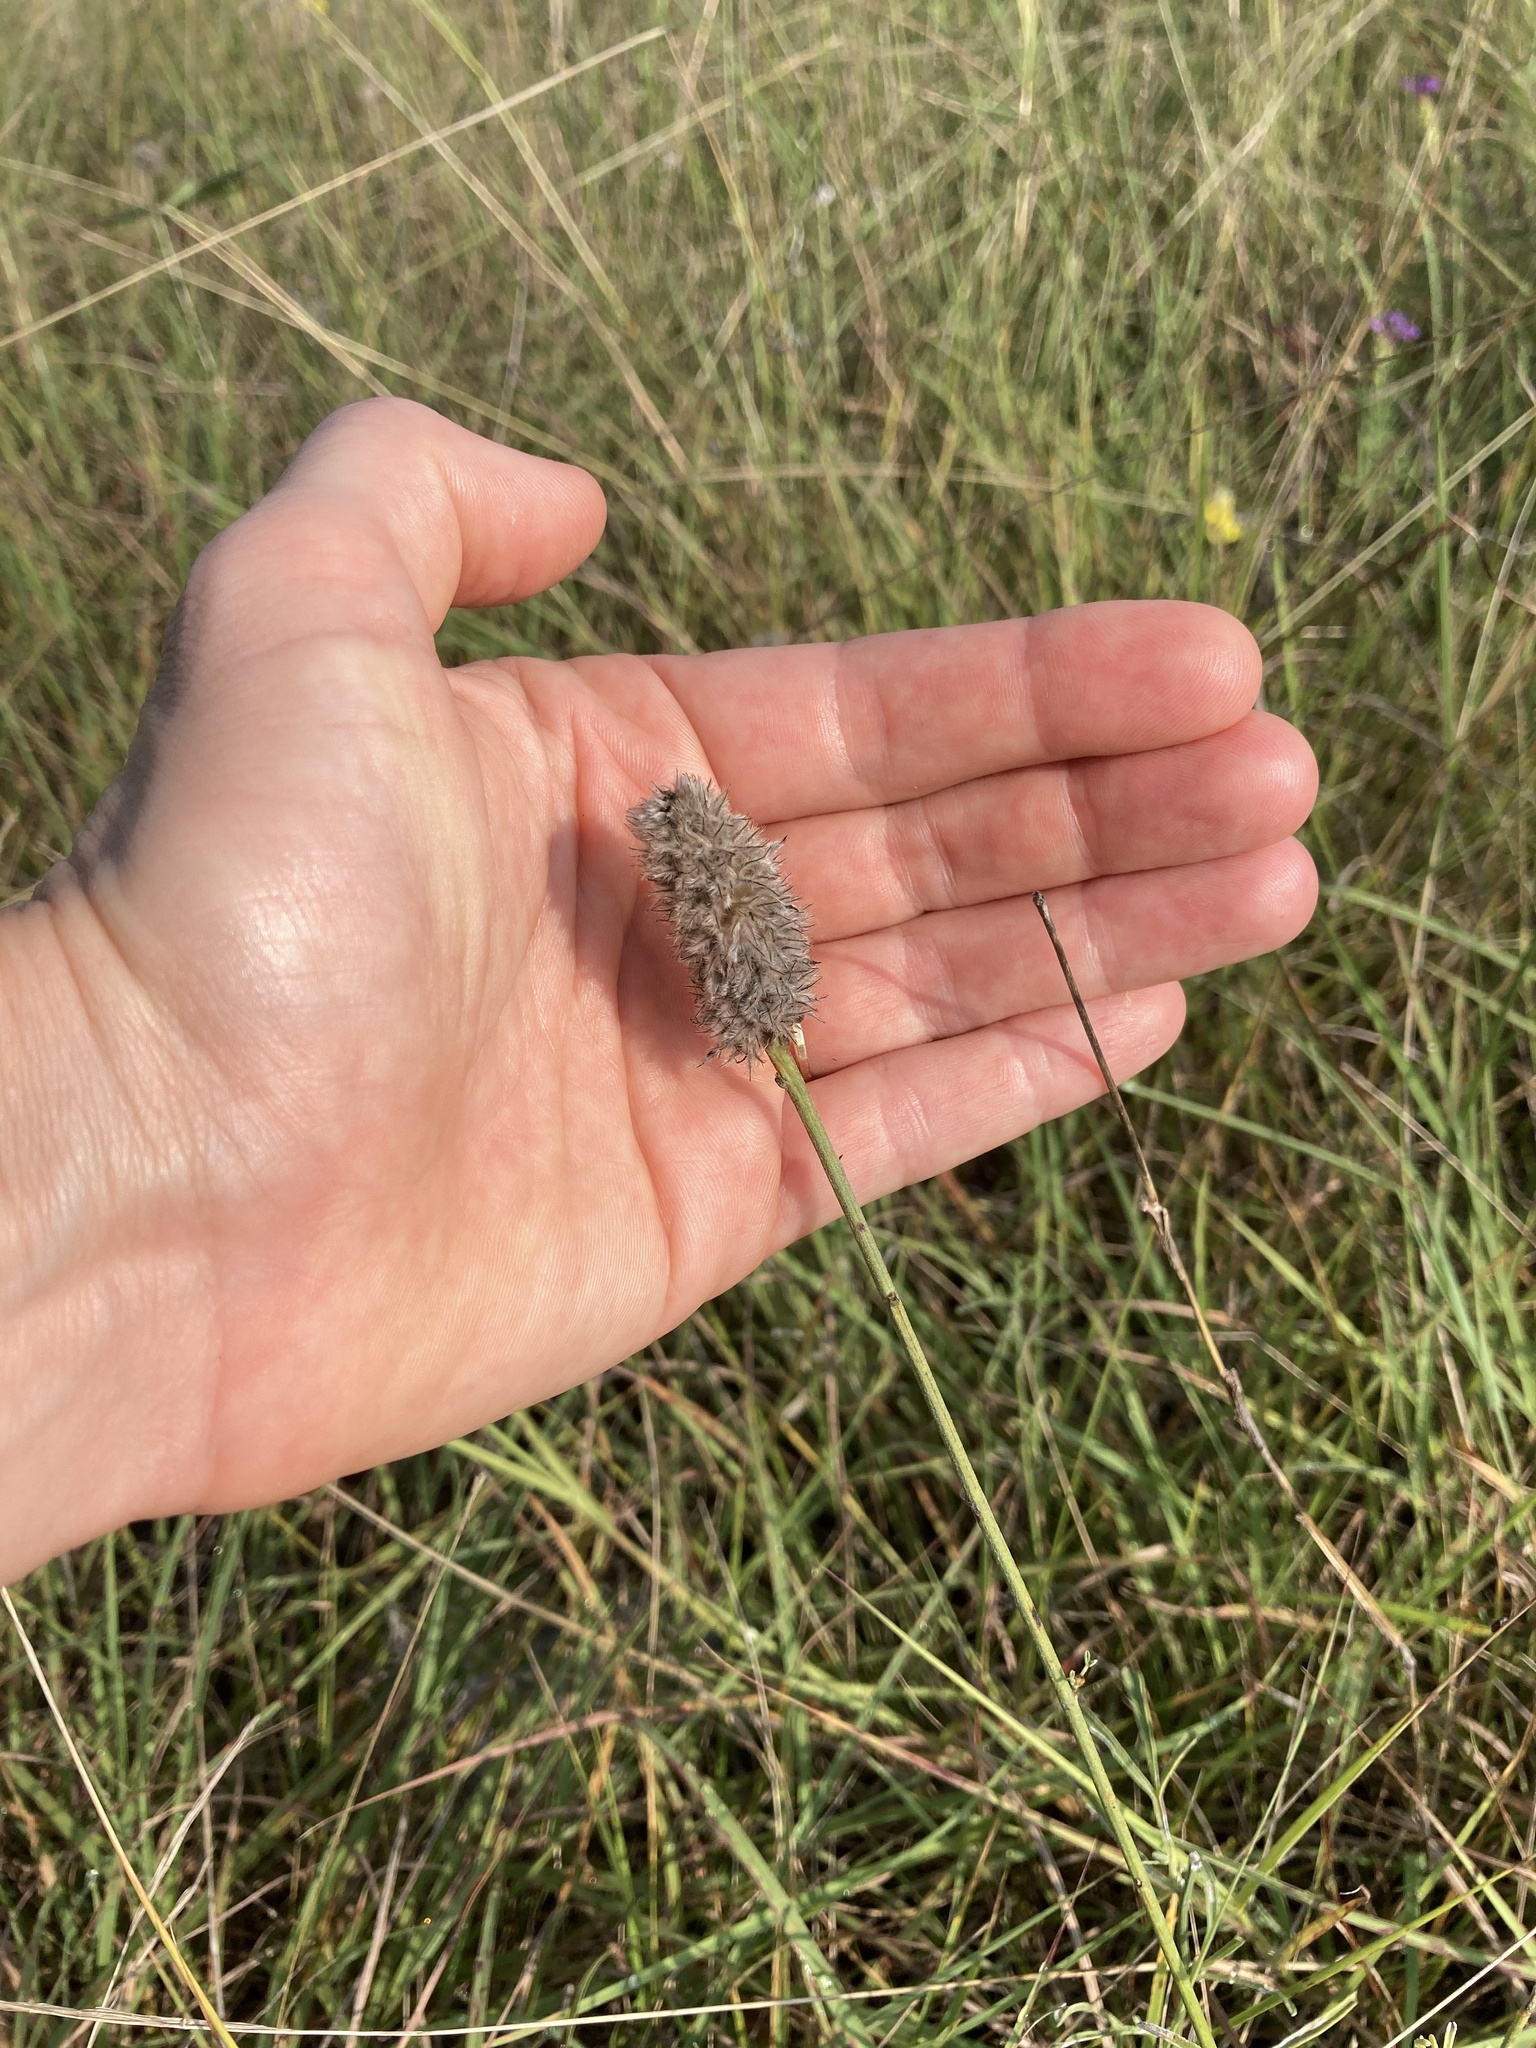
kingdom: Plantae
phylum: Tracheophyta
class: Magnoliopsida
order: Fabales
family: Fabaceae
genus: Dalea
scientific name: Dalea aurea
